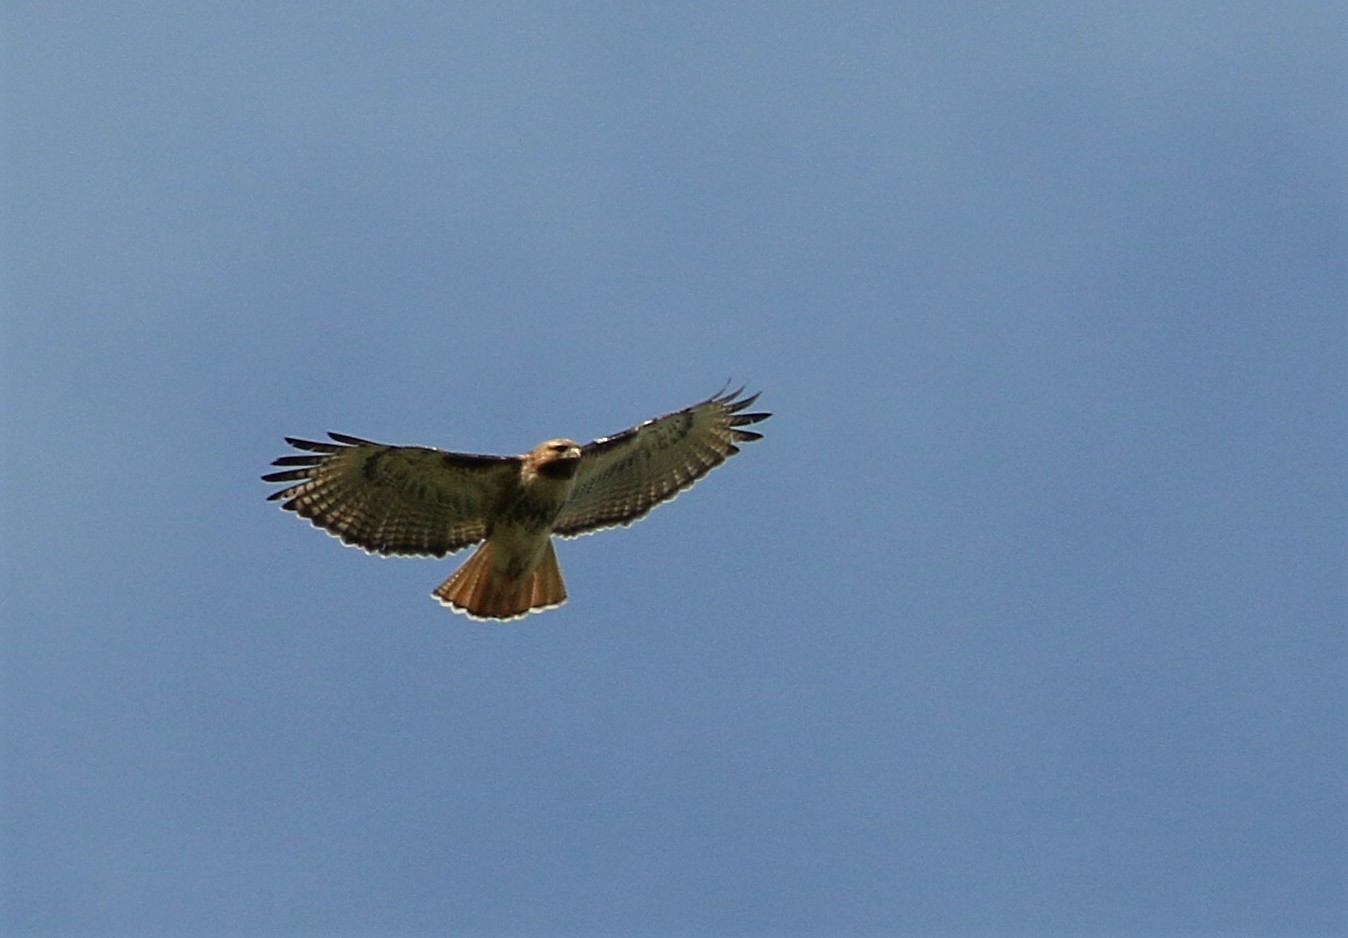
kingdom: Animalia
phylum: Chordata
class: Aves
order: Accipitriformes
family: Accipitridae
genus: Buteo
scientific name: Buteo jamaicensis
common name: Red-tailed hawk
